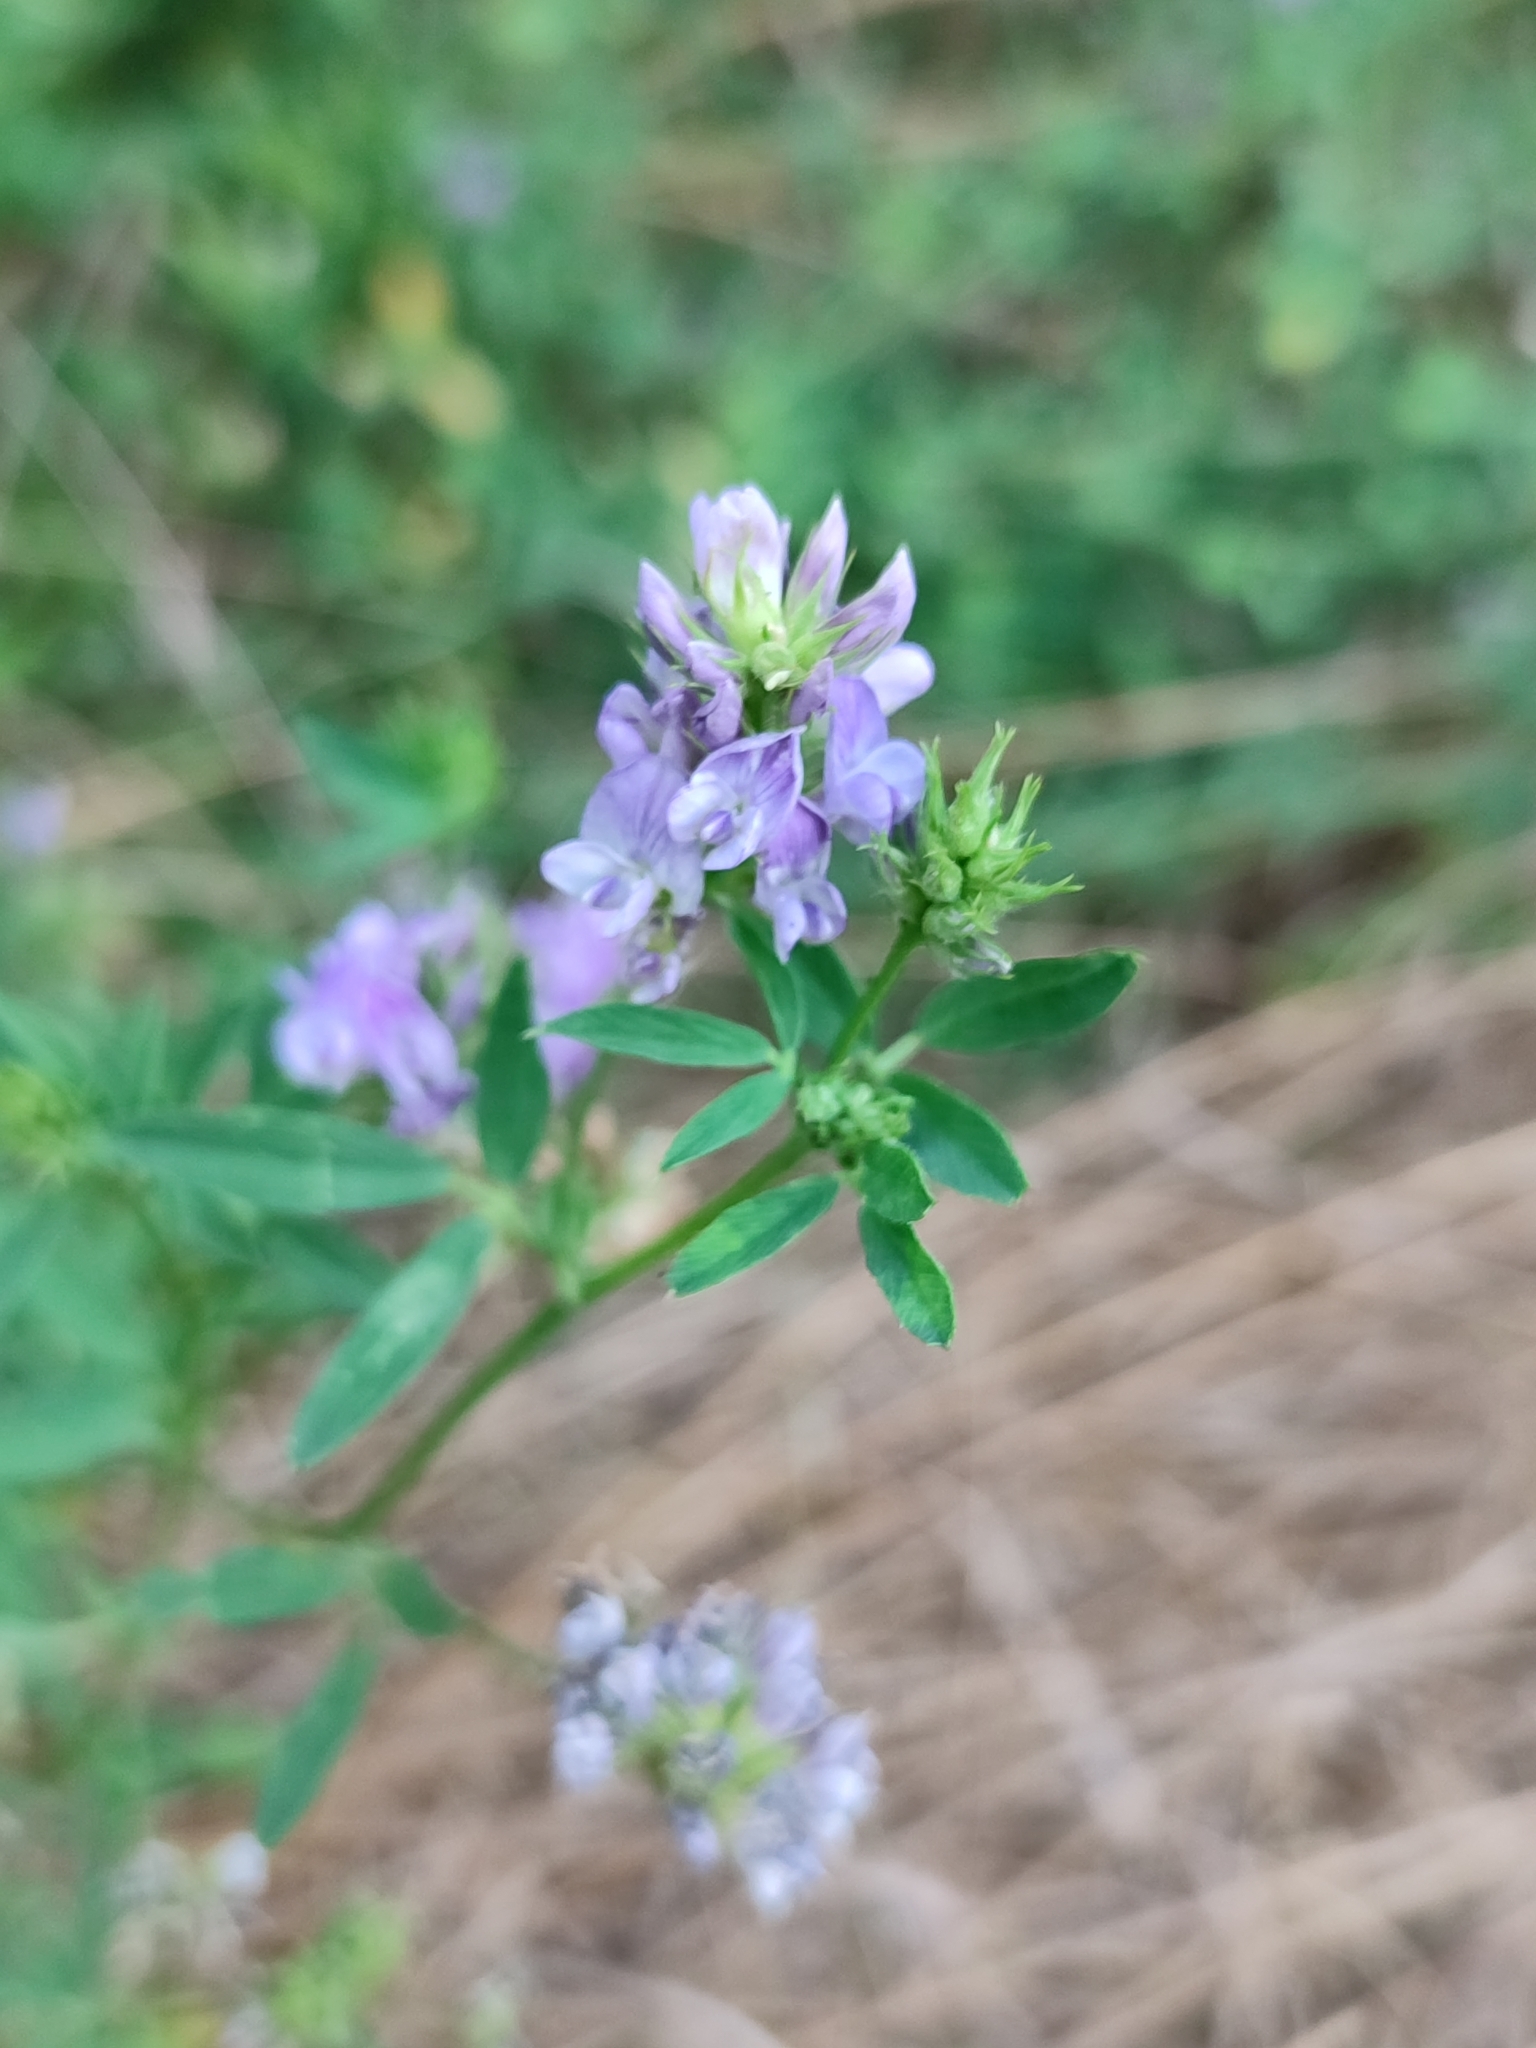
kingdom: Plantae
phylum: Tracheophyta
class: Magnoliopsida
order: Fabales
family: Fabaceae
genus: Medicago
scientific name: Medicago sativa
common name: Alfalfa
